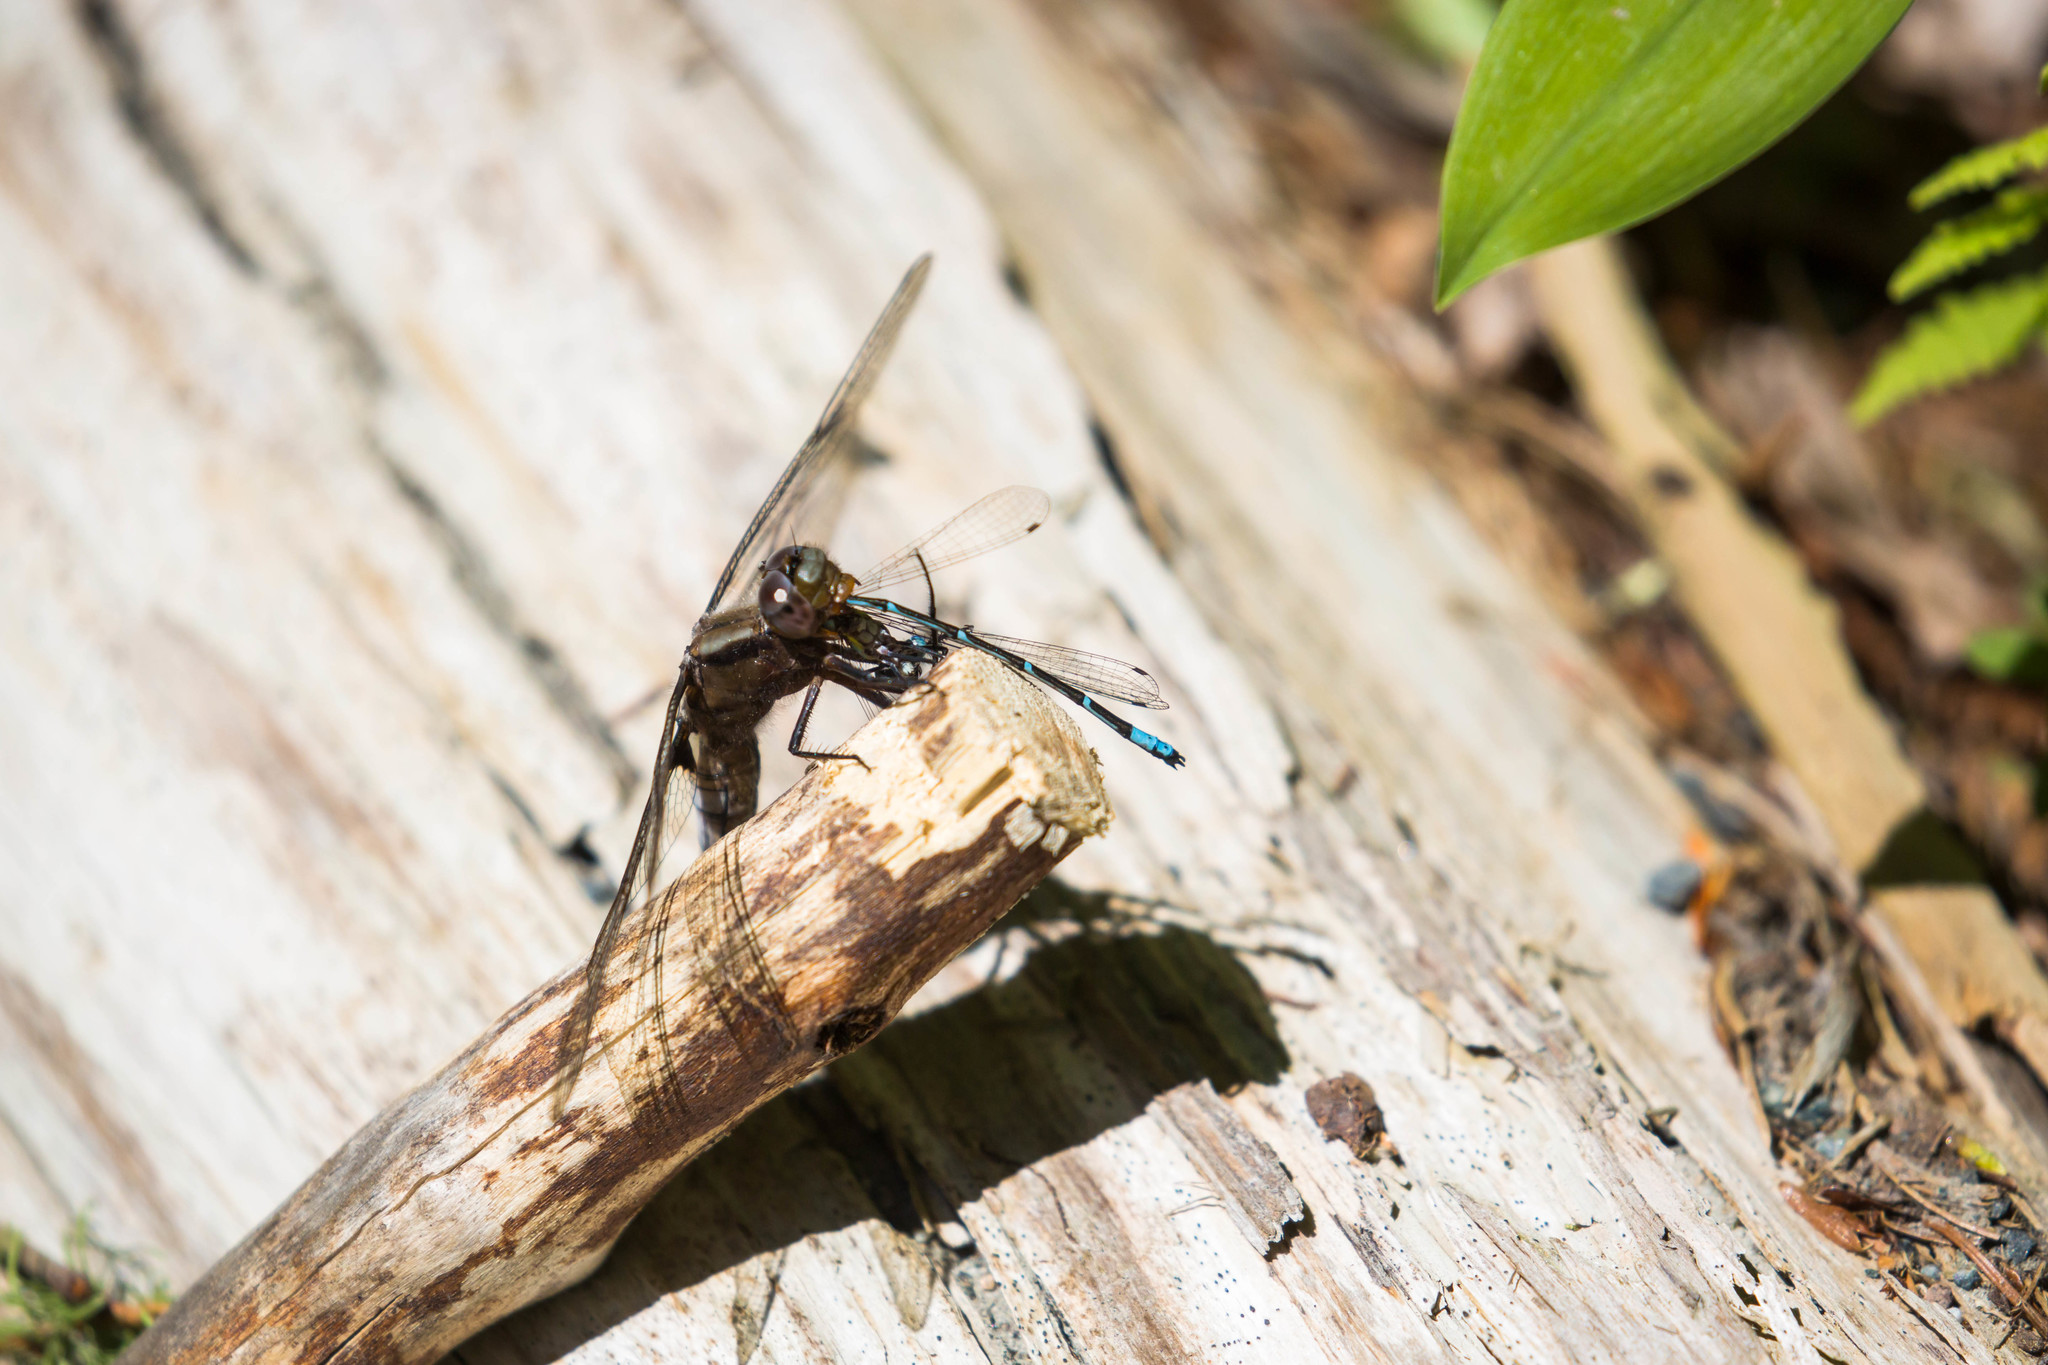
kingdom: Animalia
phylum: Arthropoda
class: Insecta
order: Odonata
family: Libellulidae
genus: Ladona
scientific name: Ladona julia
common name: Chalk-fronted corporal
